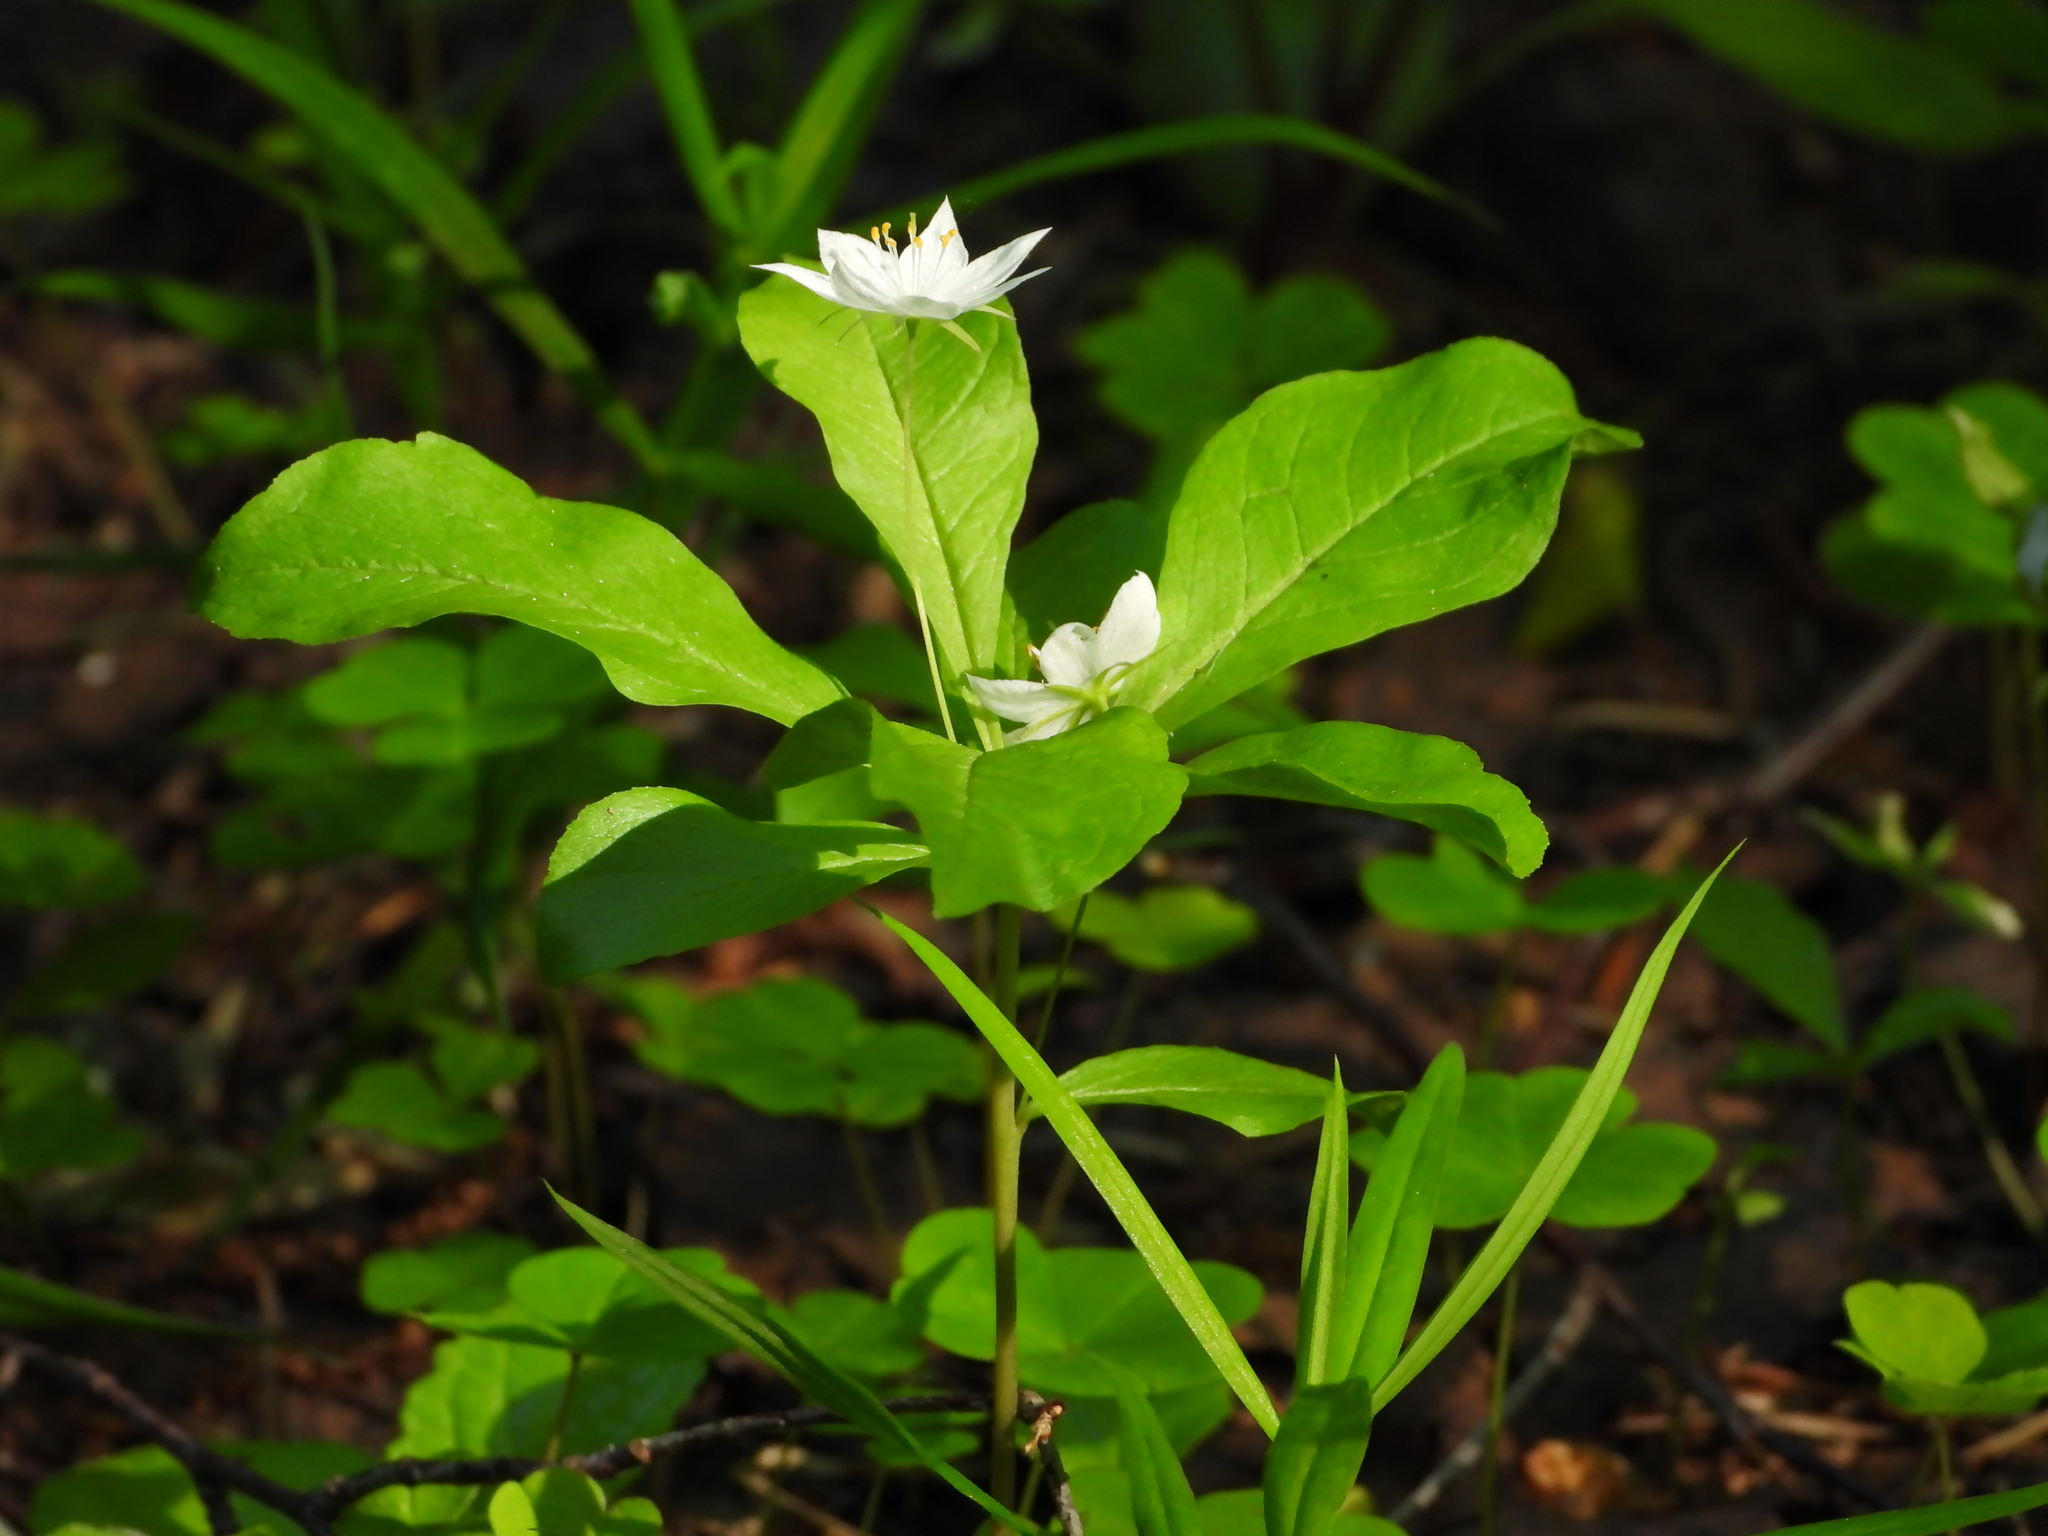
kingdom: Plantae
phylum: Tracheophyta
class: Magnoliopsida
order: Ericales
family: Primulaceae
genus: Lysimachia
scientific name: Lysimachia europaea
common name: Arctic starflower
